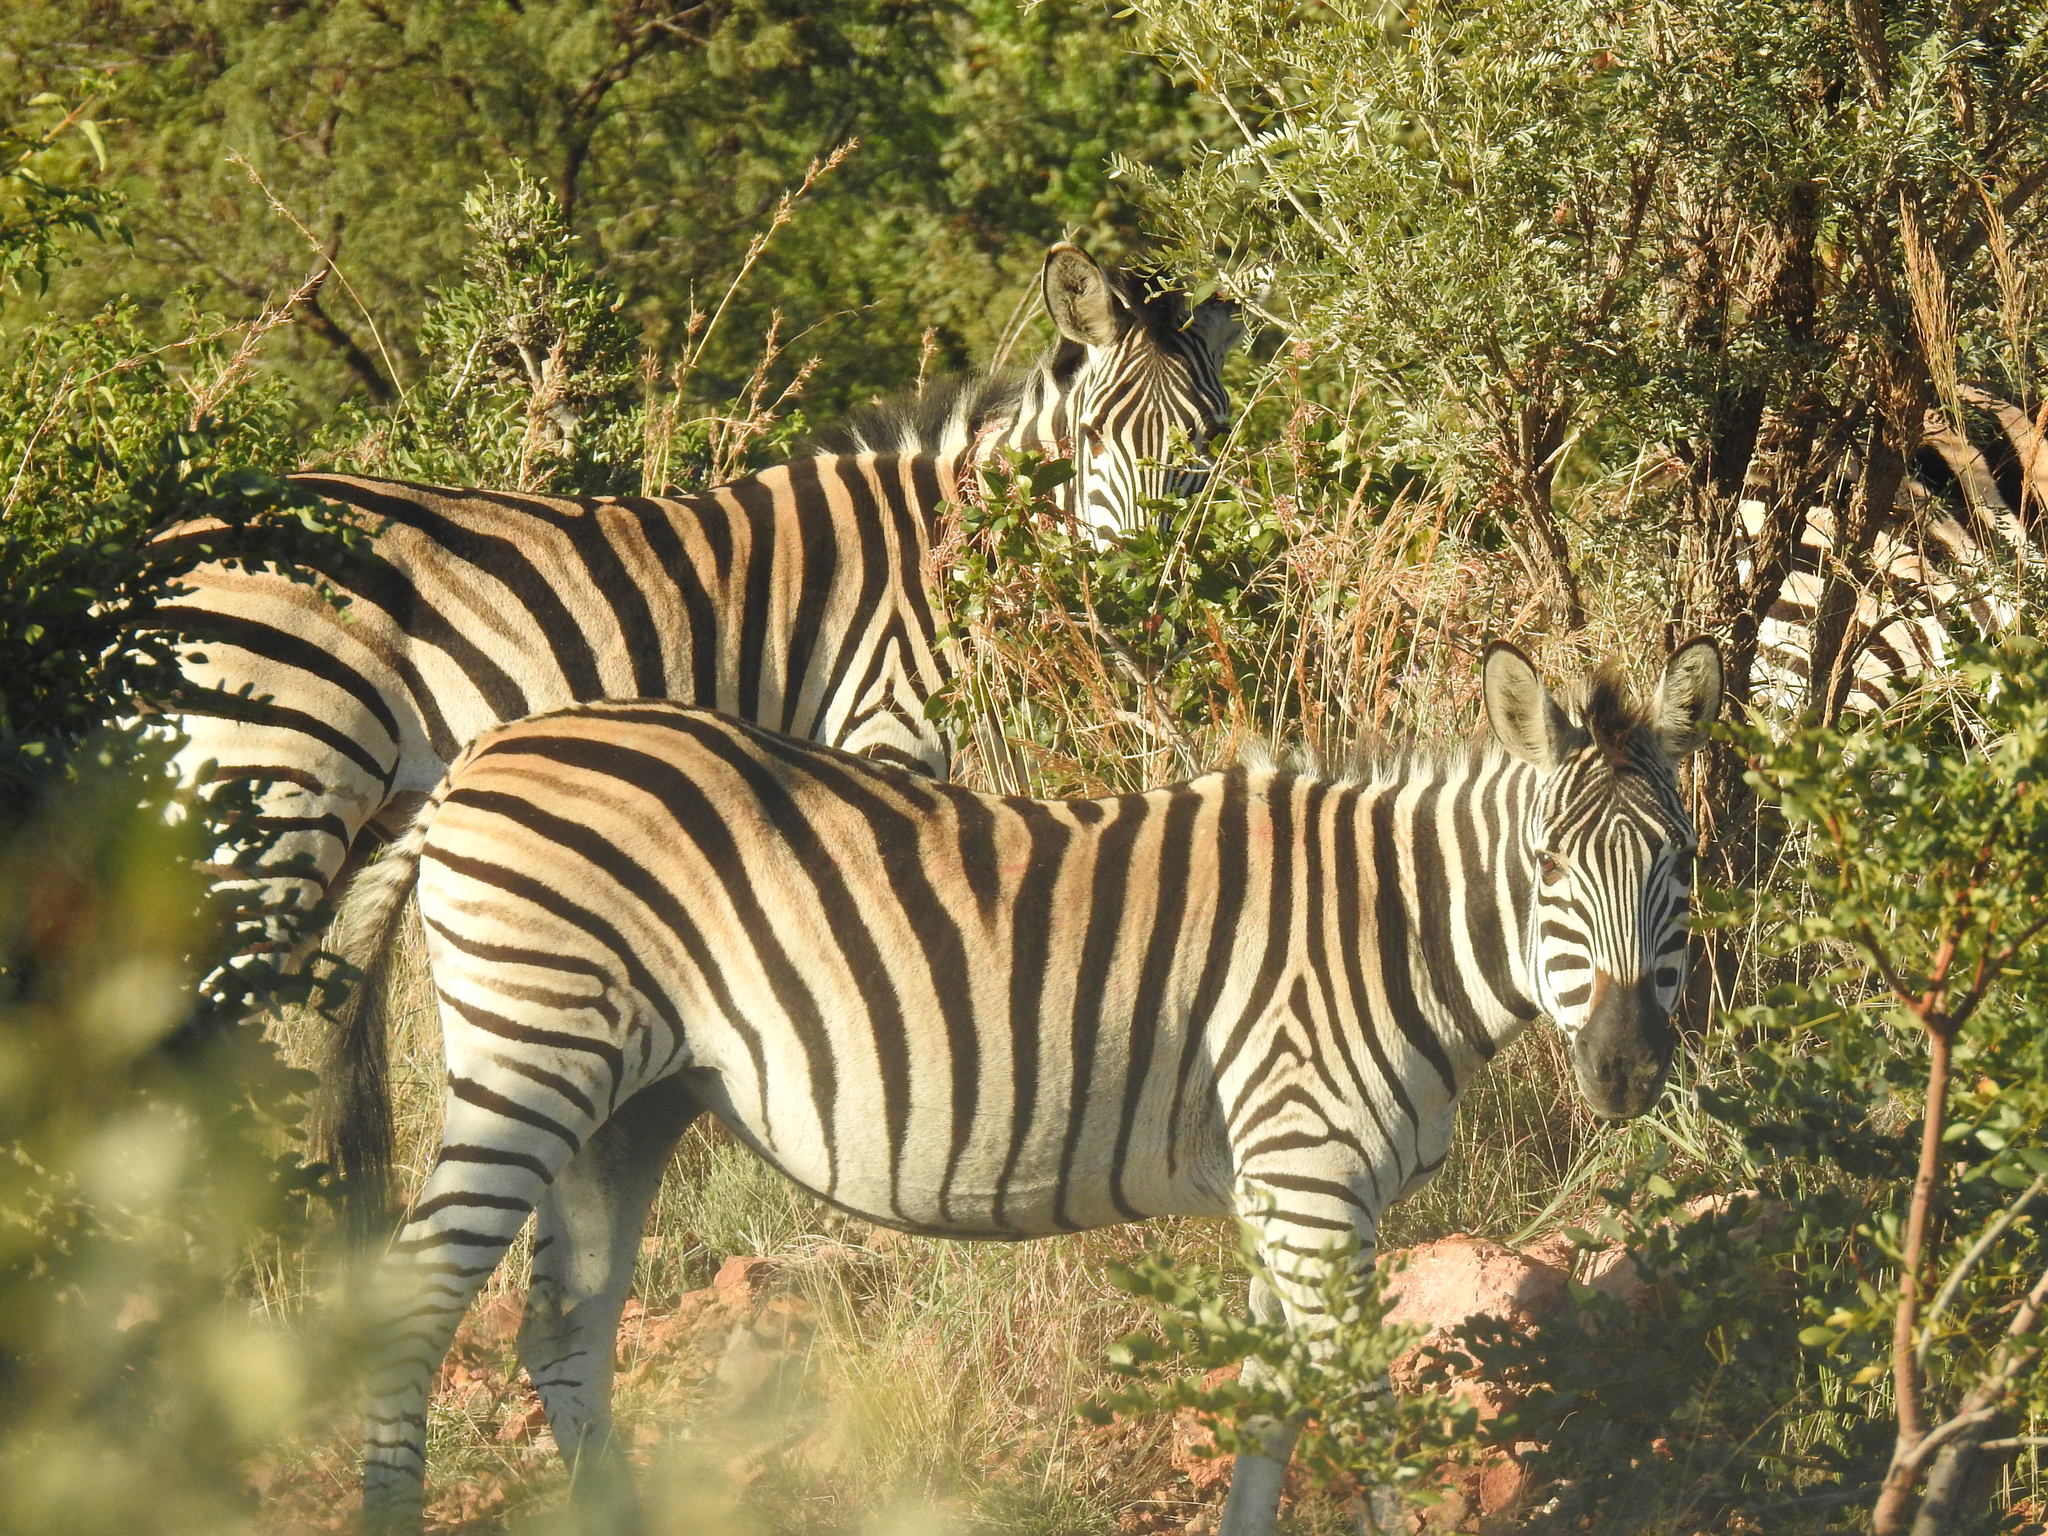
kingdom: Animalia
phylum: Chordata
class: Mammalia
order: Perissodactyla
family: Equidae
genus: Equus
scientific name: Equus quagga
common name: Plains zebra
